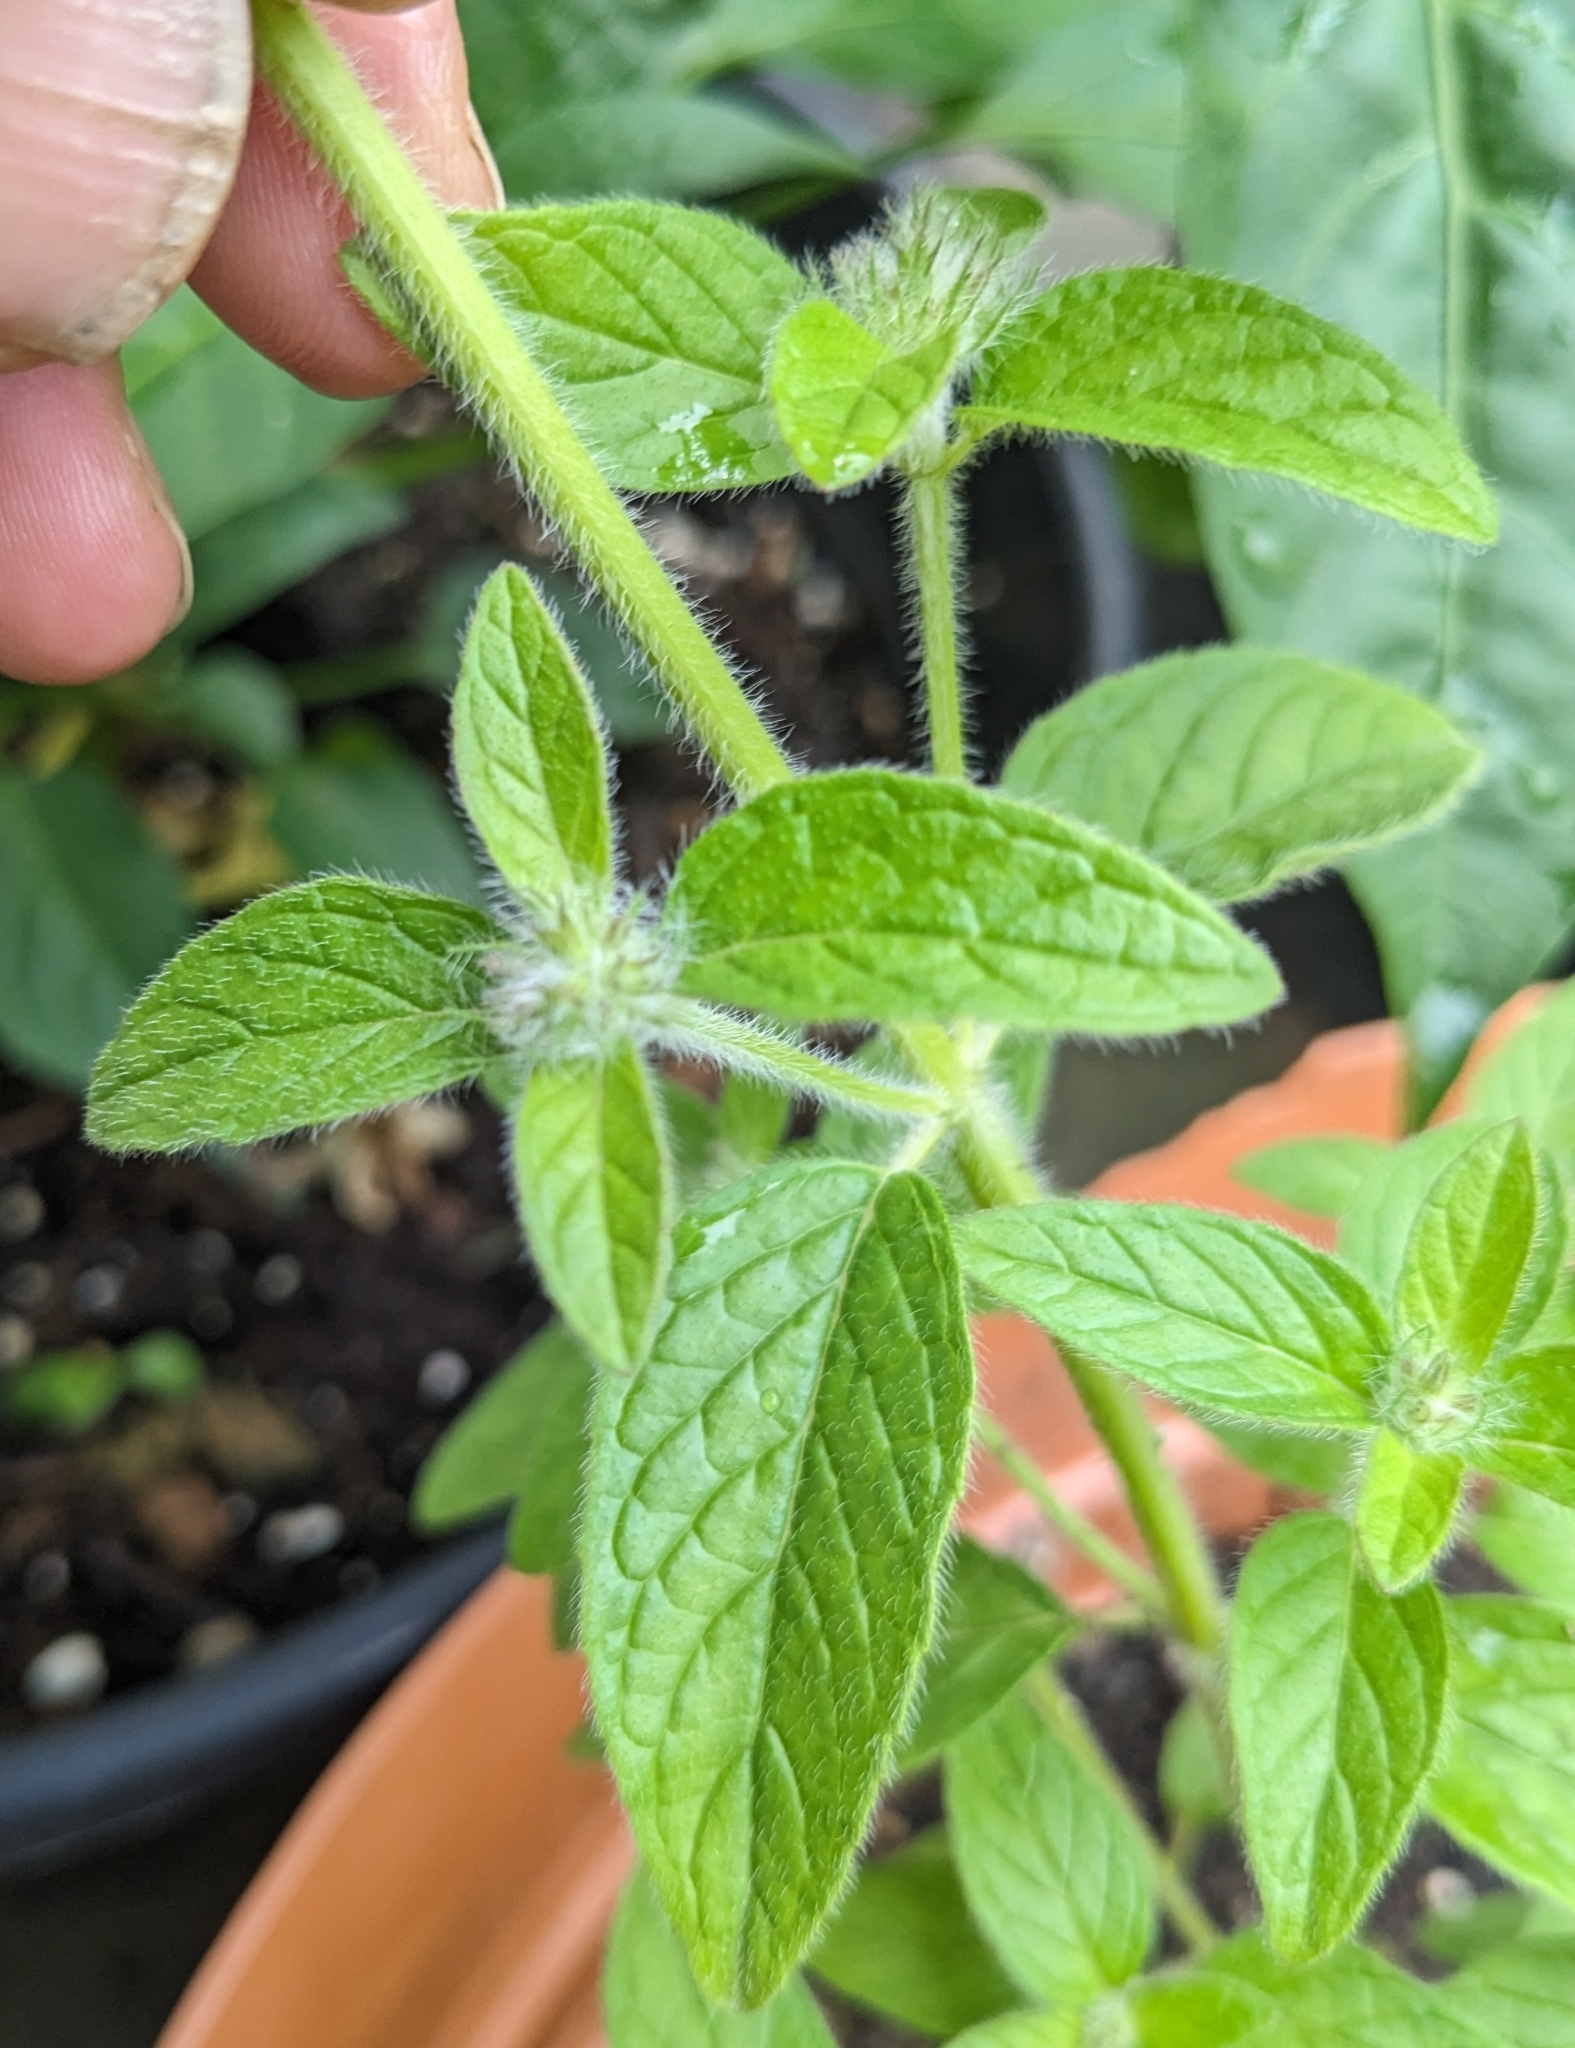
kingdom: Plantae
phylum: Tracheophyta
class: Magnoliopsida
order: Lamiales
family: Lamiaceae
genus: Clinopodium
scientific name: Clinopodium vulgare
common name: Wild basil
